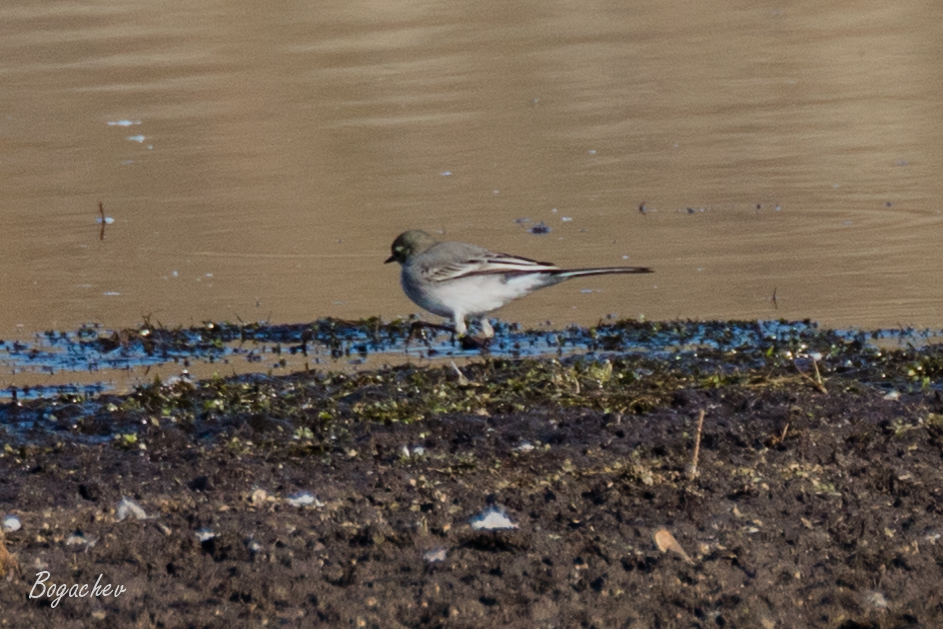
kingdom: Animalia
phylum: Chordata
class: Aves
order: Passeriformes
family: Motacillidae
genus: Motacilla
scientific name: Motacilla alba
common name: White wagtail
